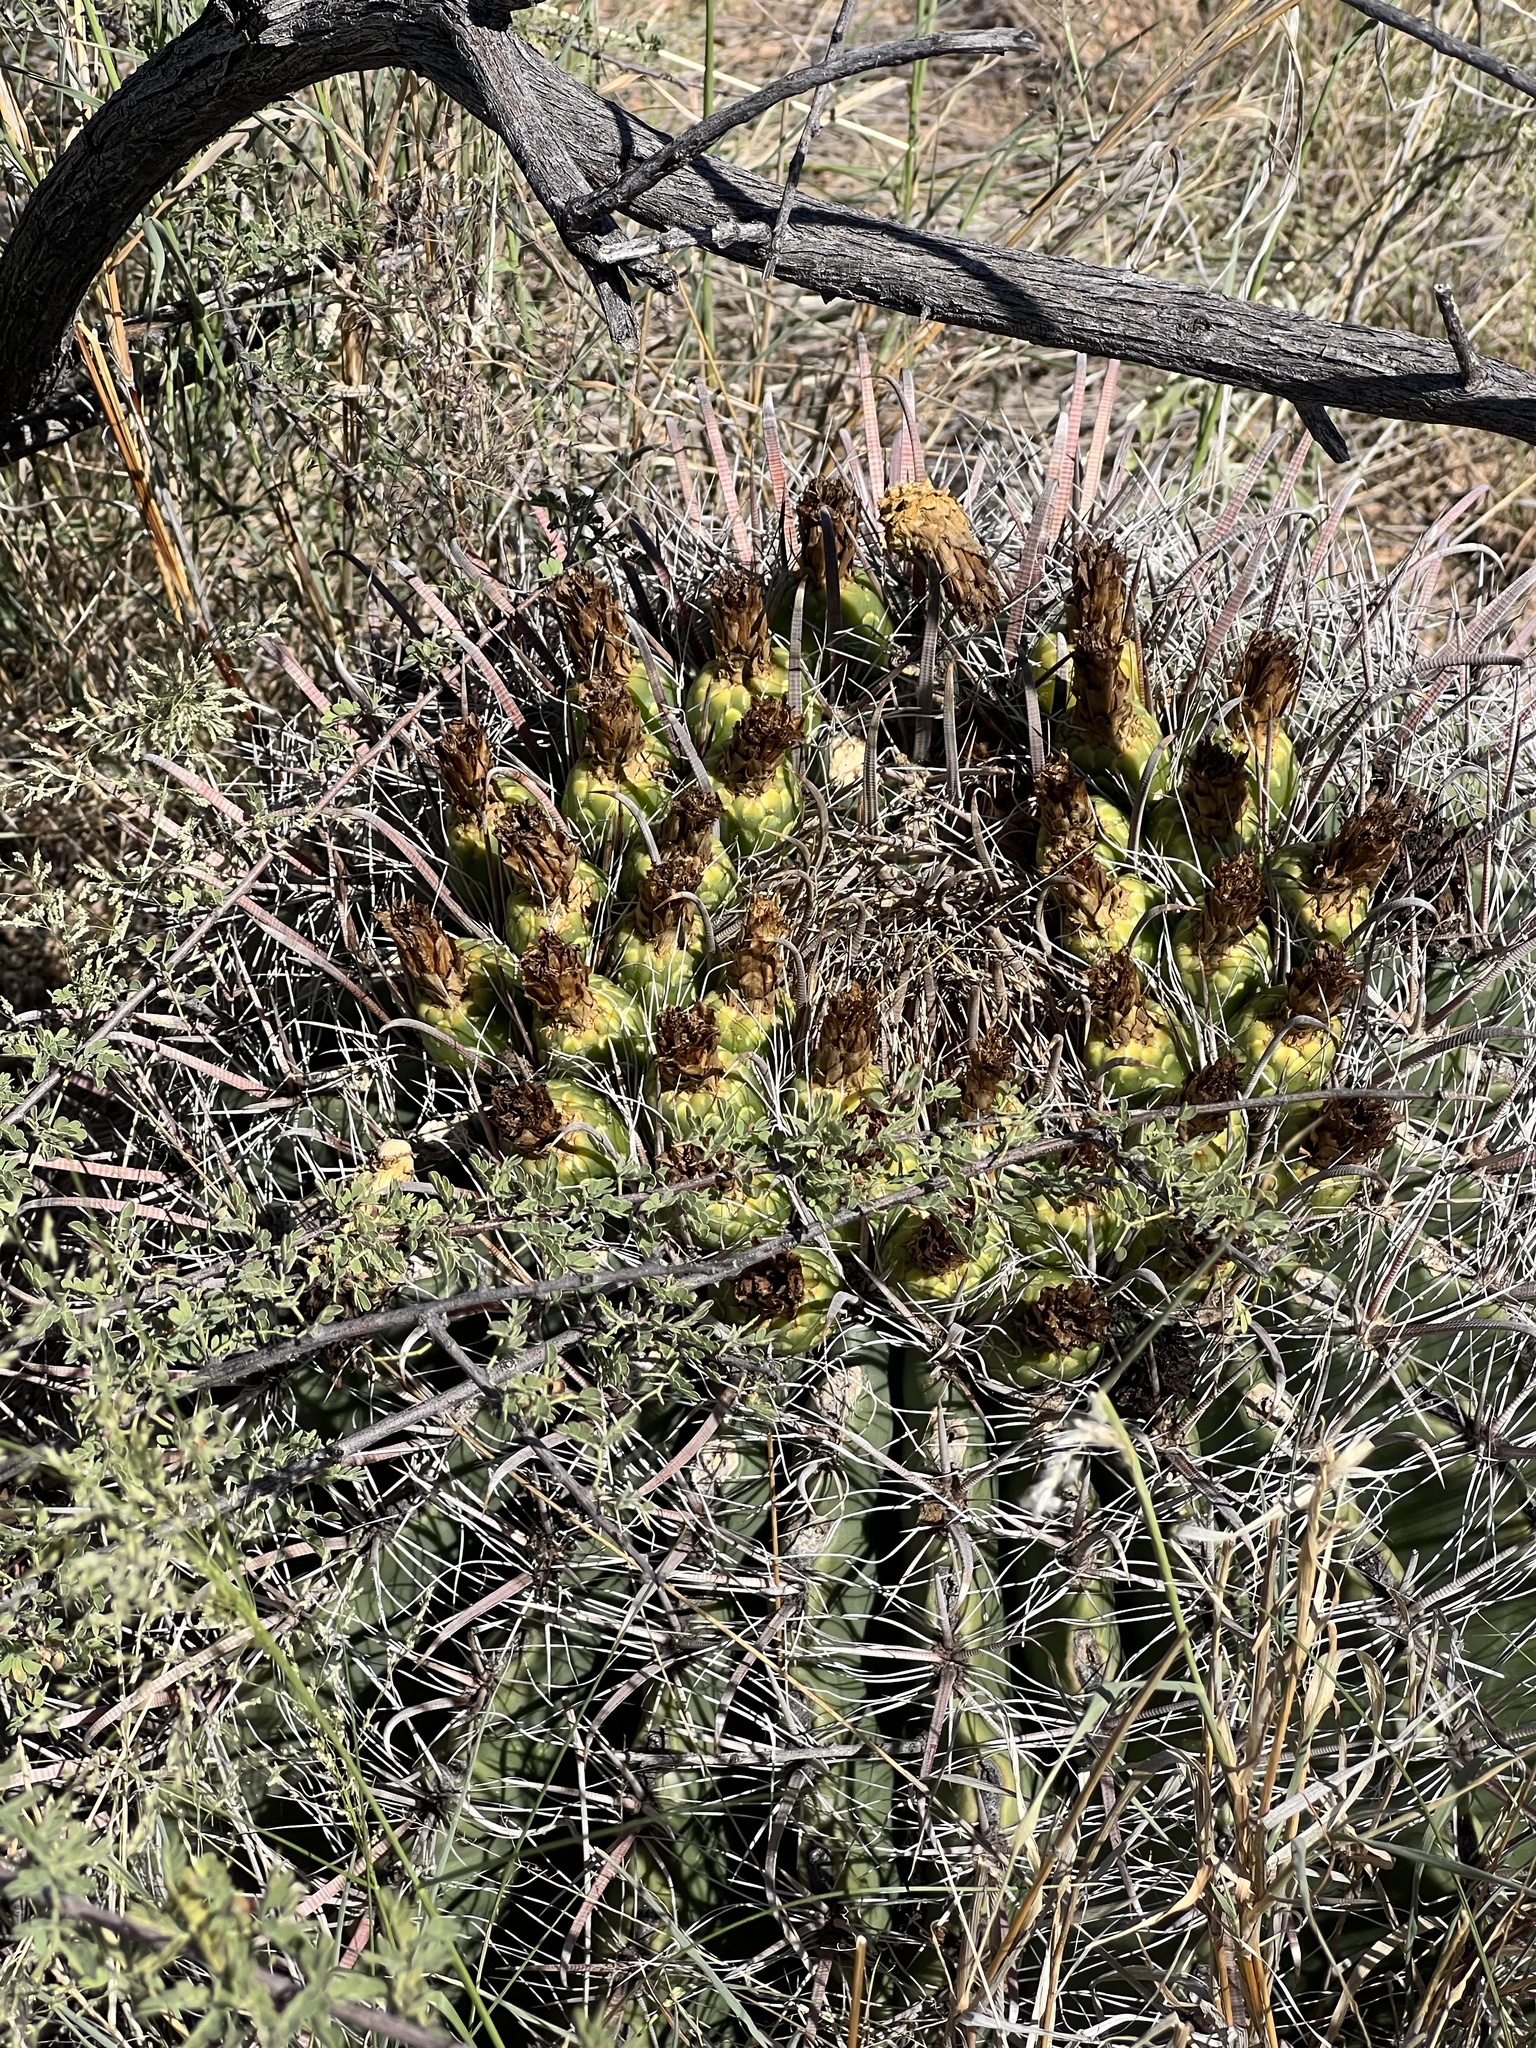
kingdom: Plantae
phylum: Tracheophyta
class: Magnoliopsida
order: Caryophyllales
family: Cactaceae
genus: Ferocactus
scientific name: Ferocactus wislizeni
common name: Candy barrel cactus
